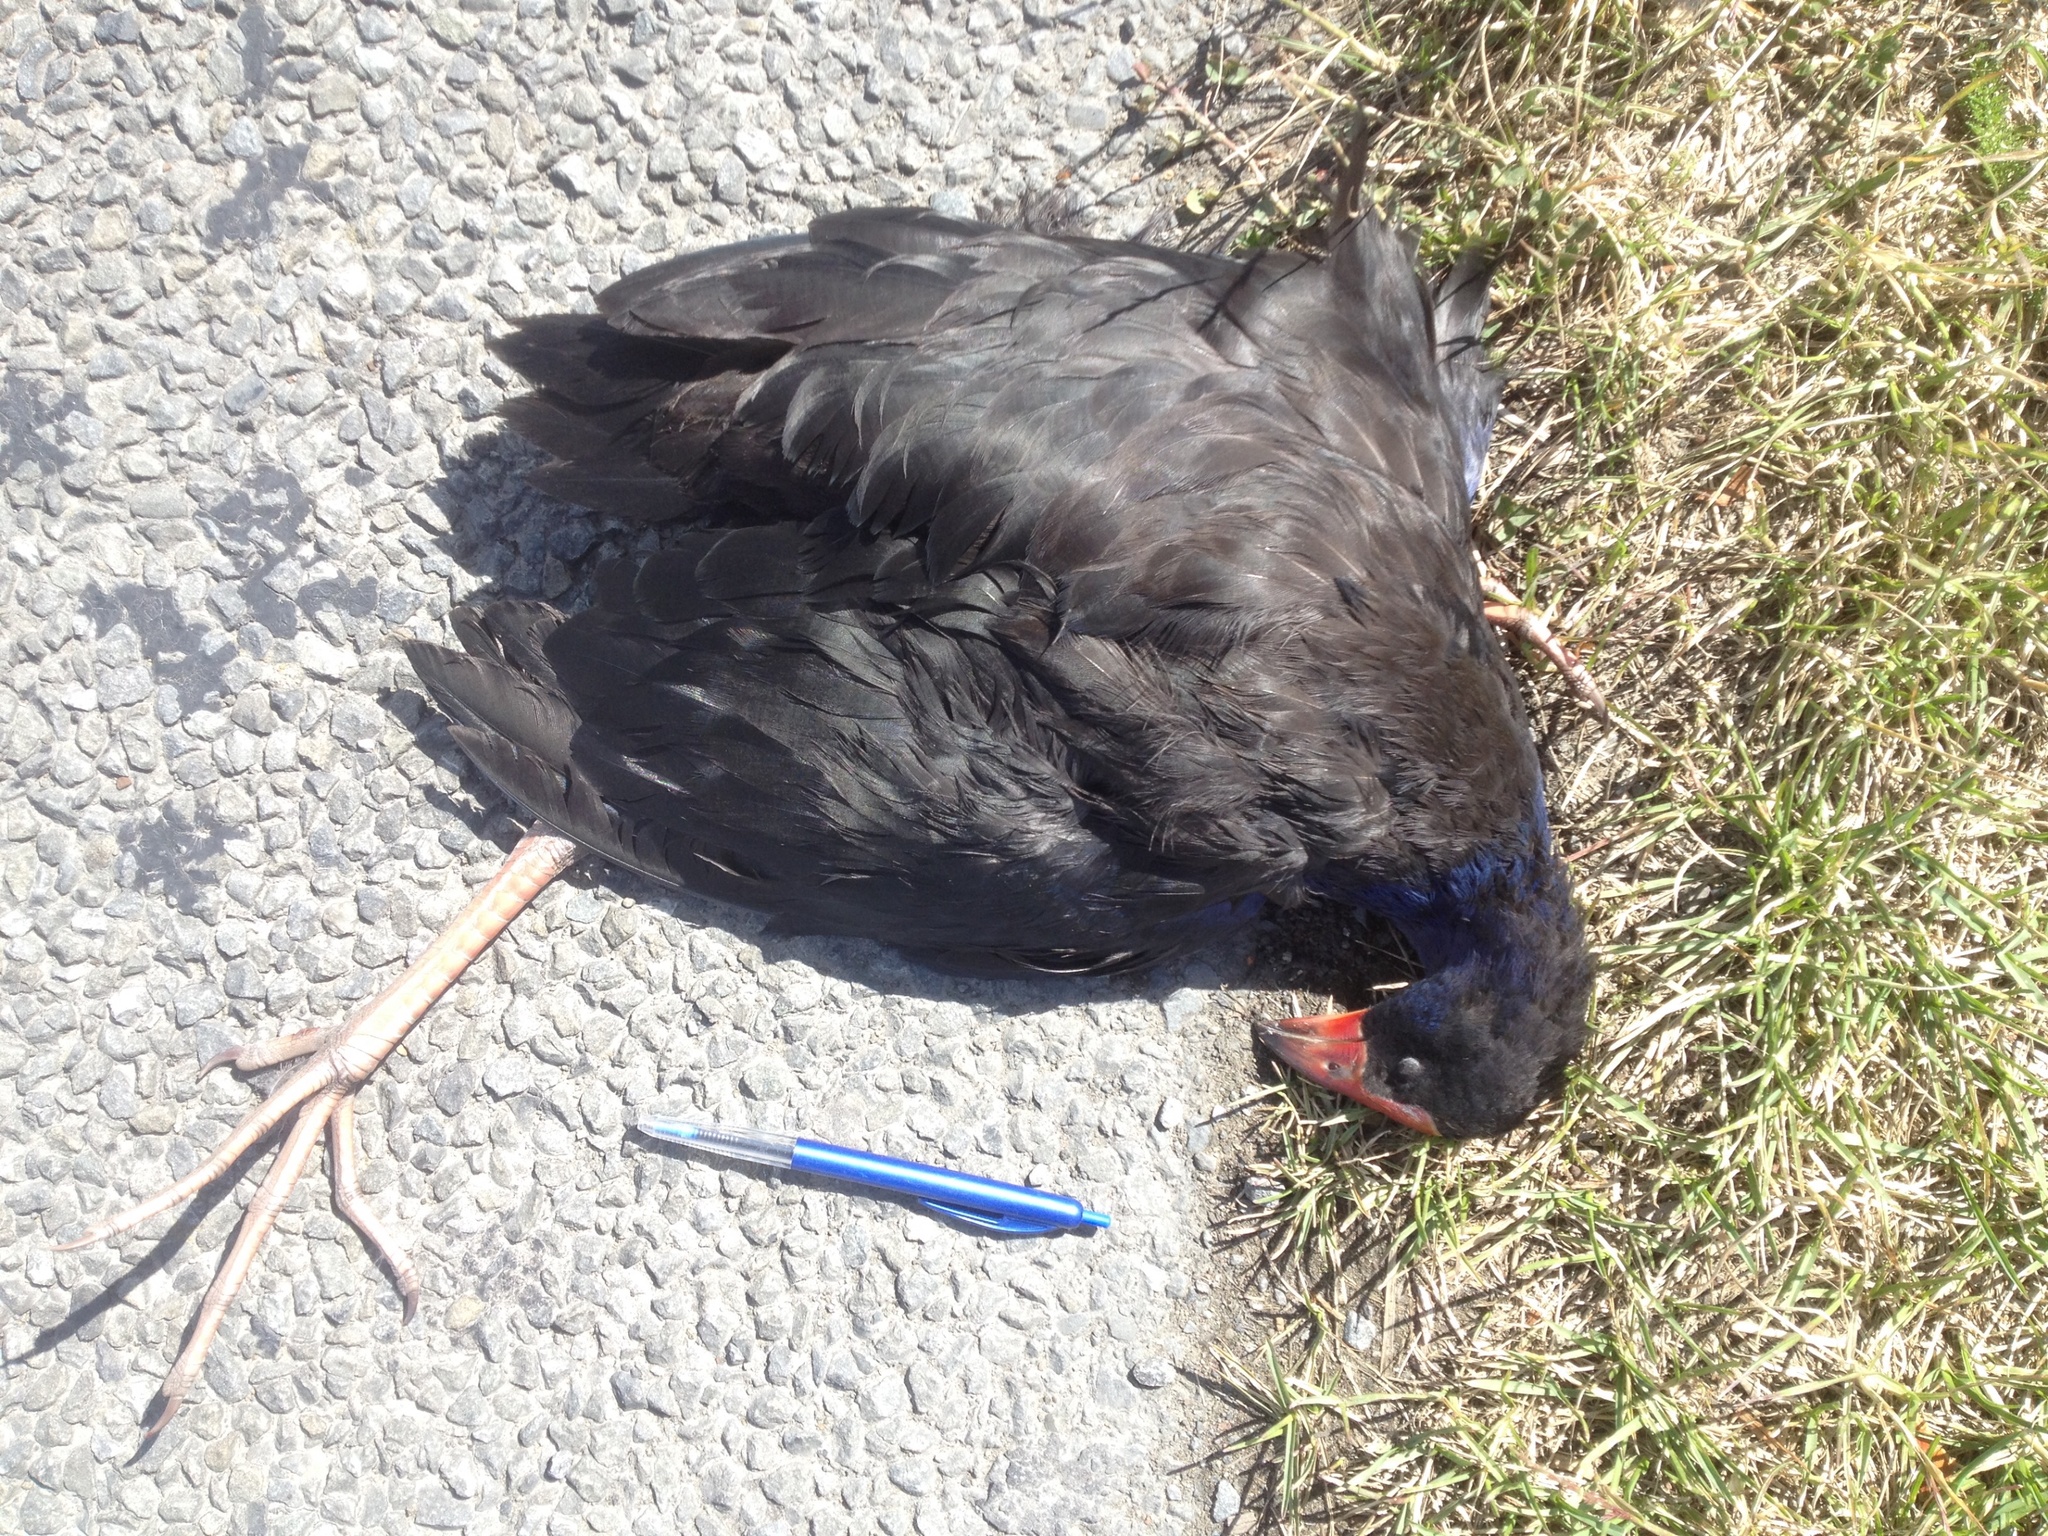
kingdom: Animalia
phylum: Chordata
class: Aves
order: Gruiformes
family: Rallidae
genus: Porphyrio
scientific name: Porphyrio melanotus
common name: Australasian swamphen
